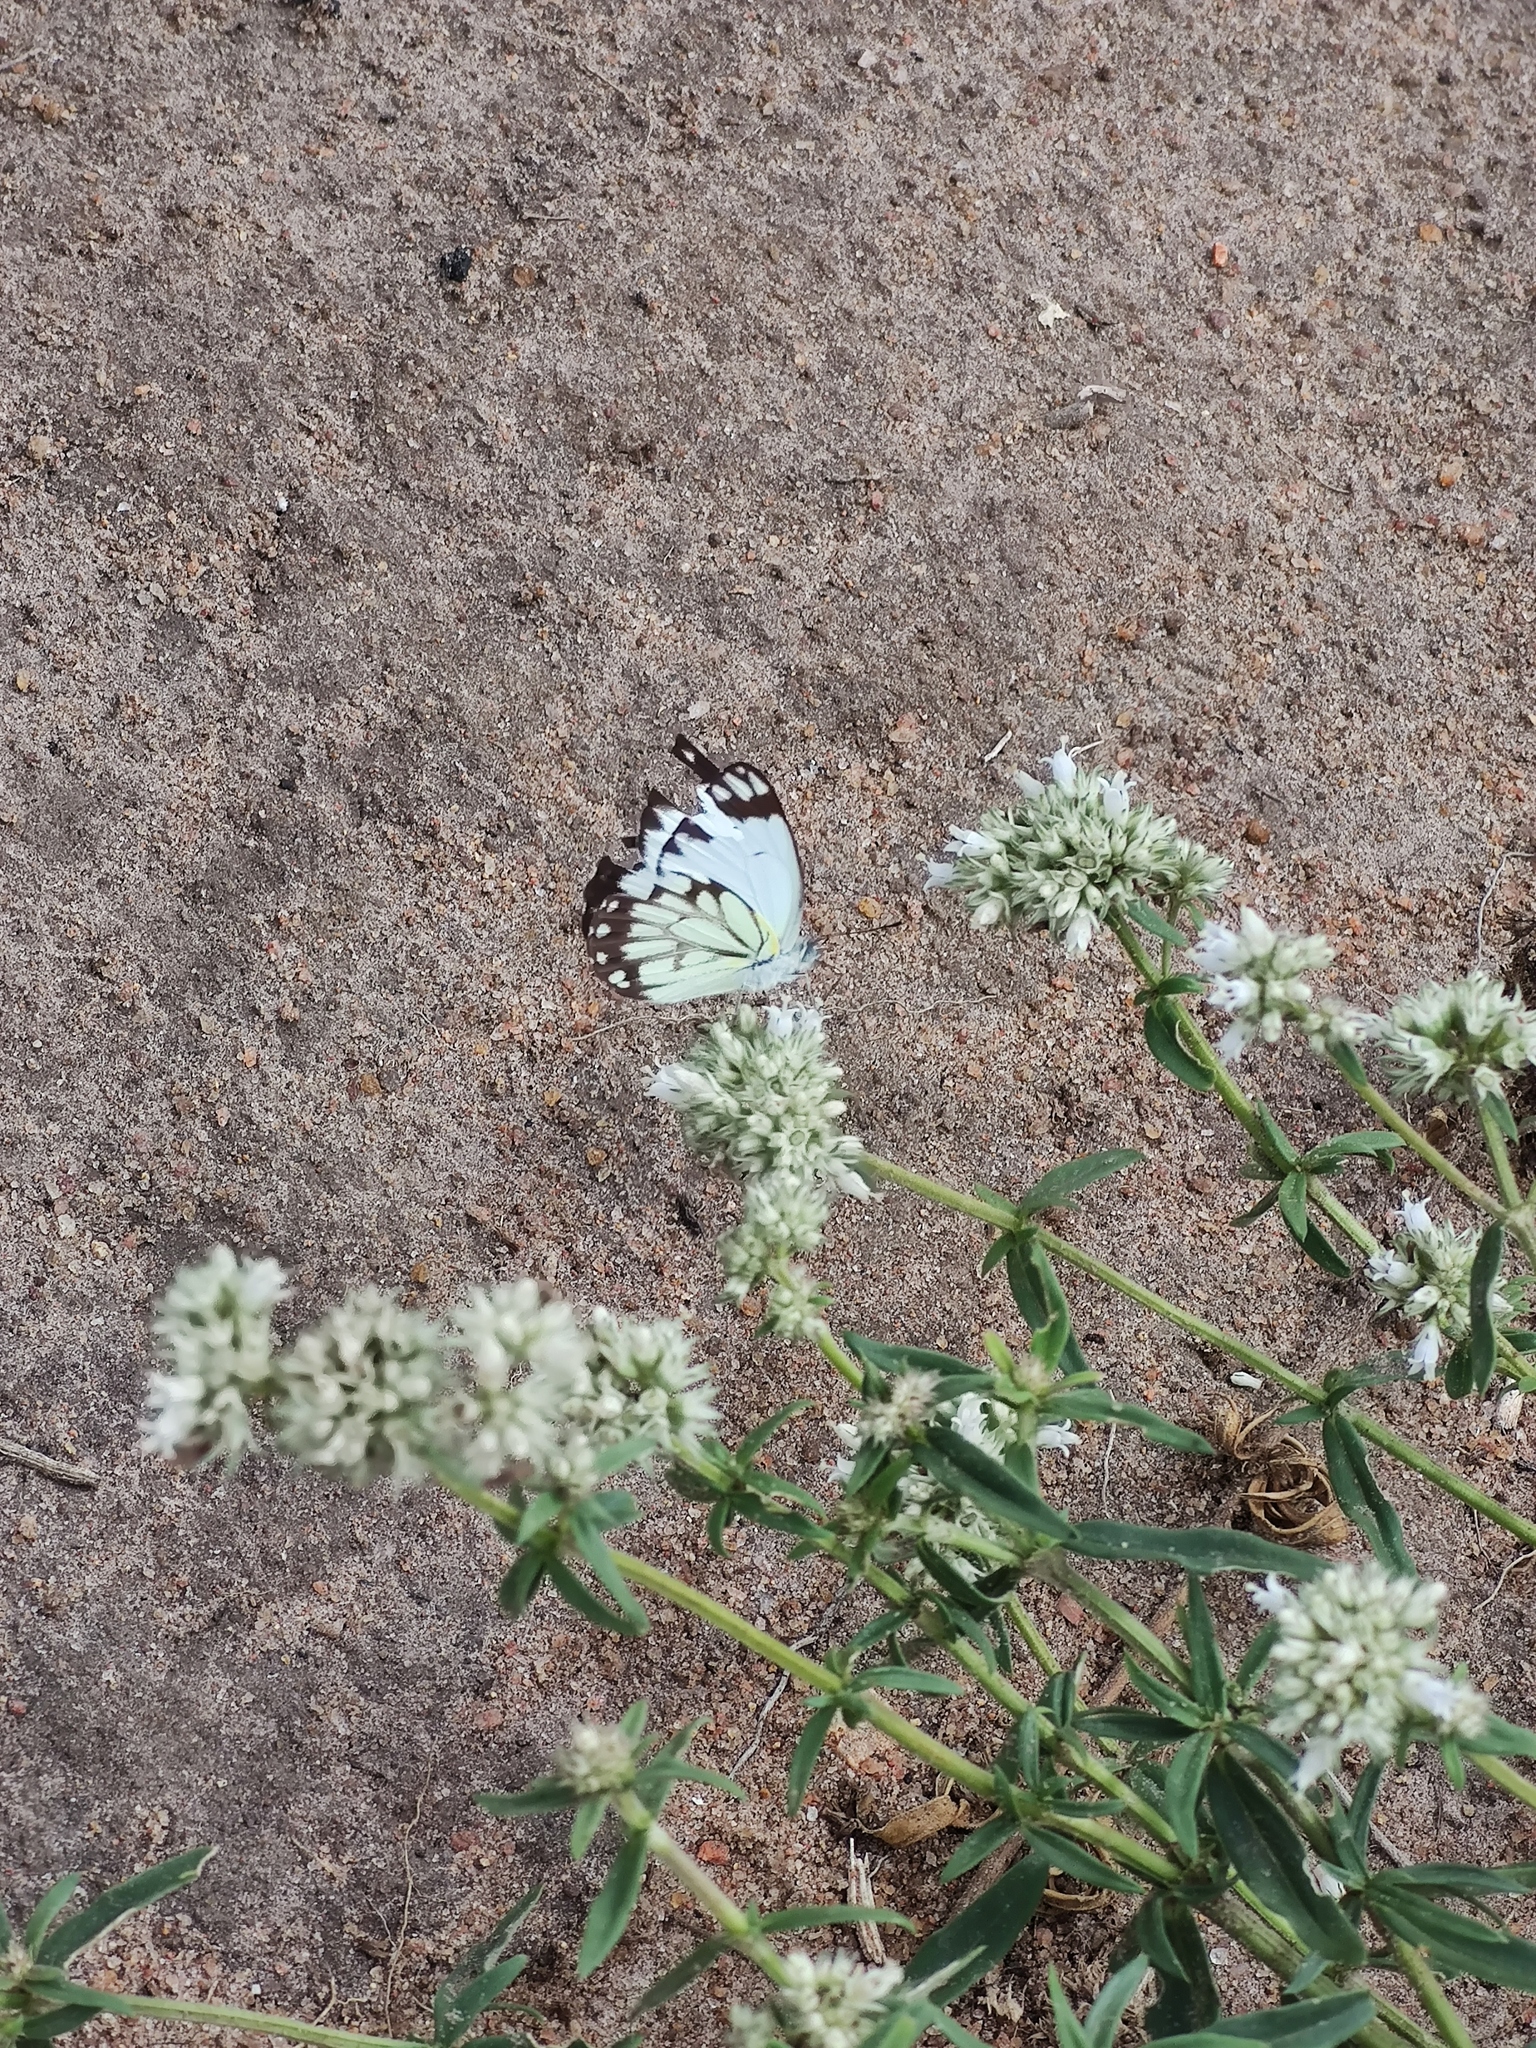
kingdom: Animalia
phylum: Arthropoda
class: Insecta
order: Lepidoptera
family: Pieridae
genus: Belenois
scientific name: Belenois creona
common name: African caper white
